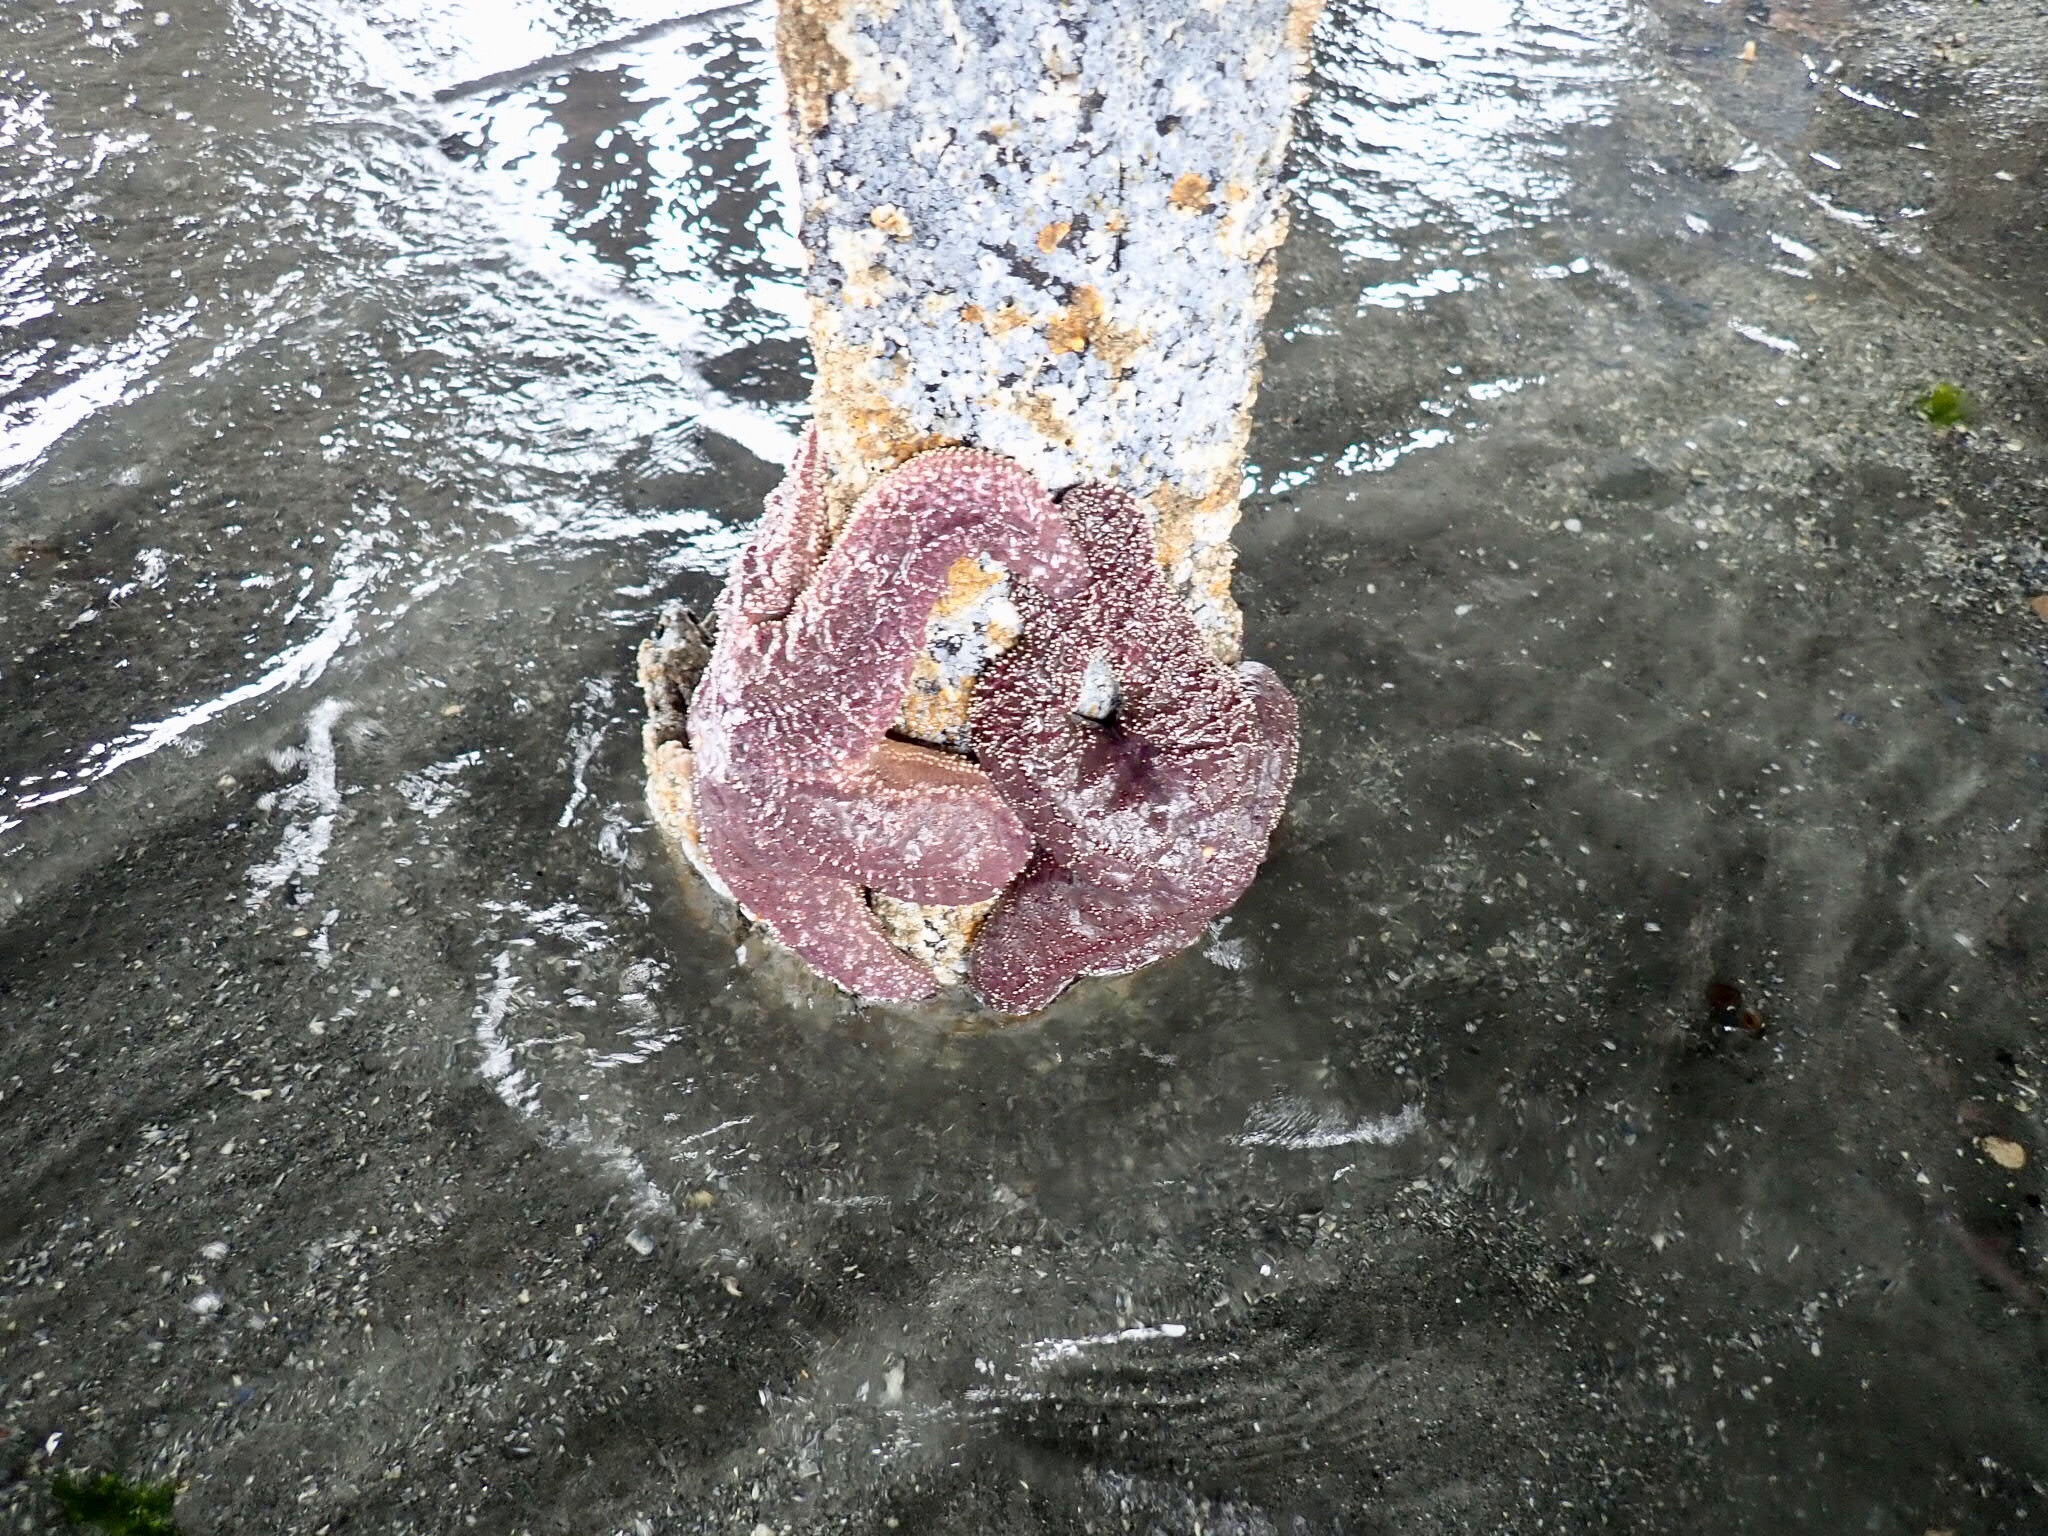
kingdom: Animalia
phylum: Echinodermata
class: Asteroidea
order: Forcipulatida
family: Asteriidae
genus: Pisaster
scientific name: Pisaster ochraceus
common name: Ochre stars
